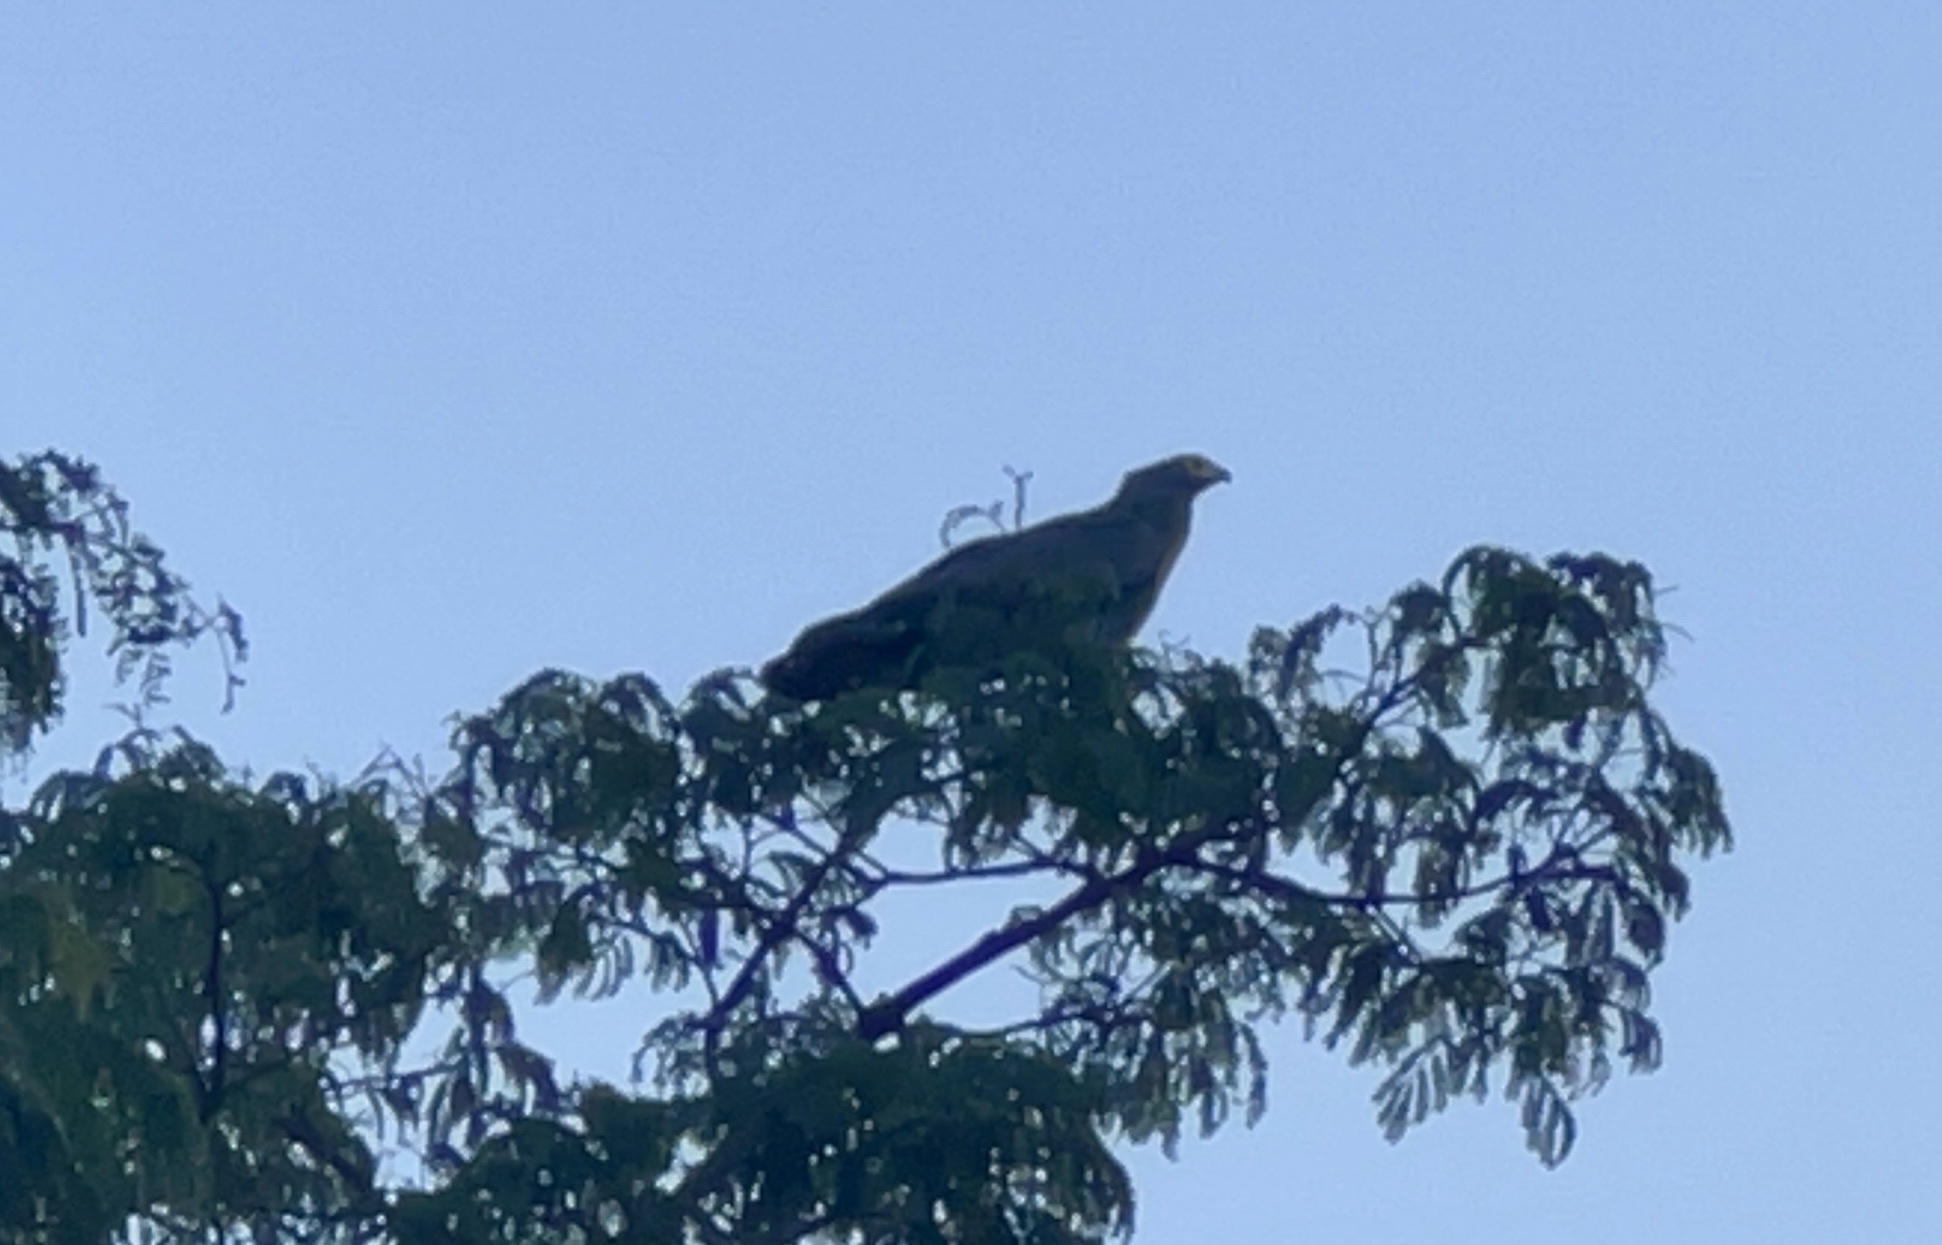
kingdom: Animalia
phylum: Chordata
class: Aves
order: Accipitriformes
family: Accipitridae
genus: Polyboroides
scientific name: Polyboroides typus
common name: African harrier-hawk
